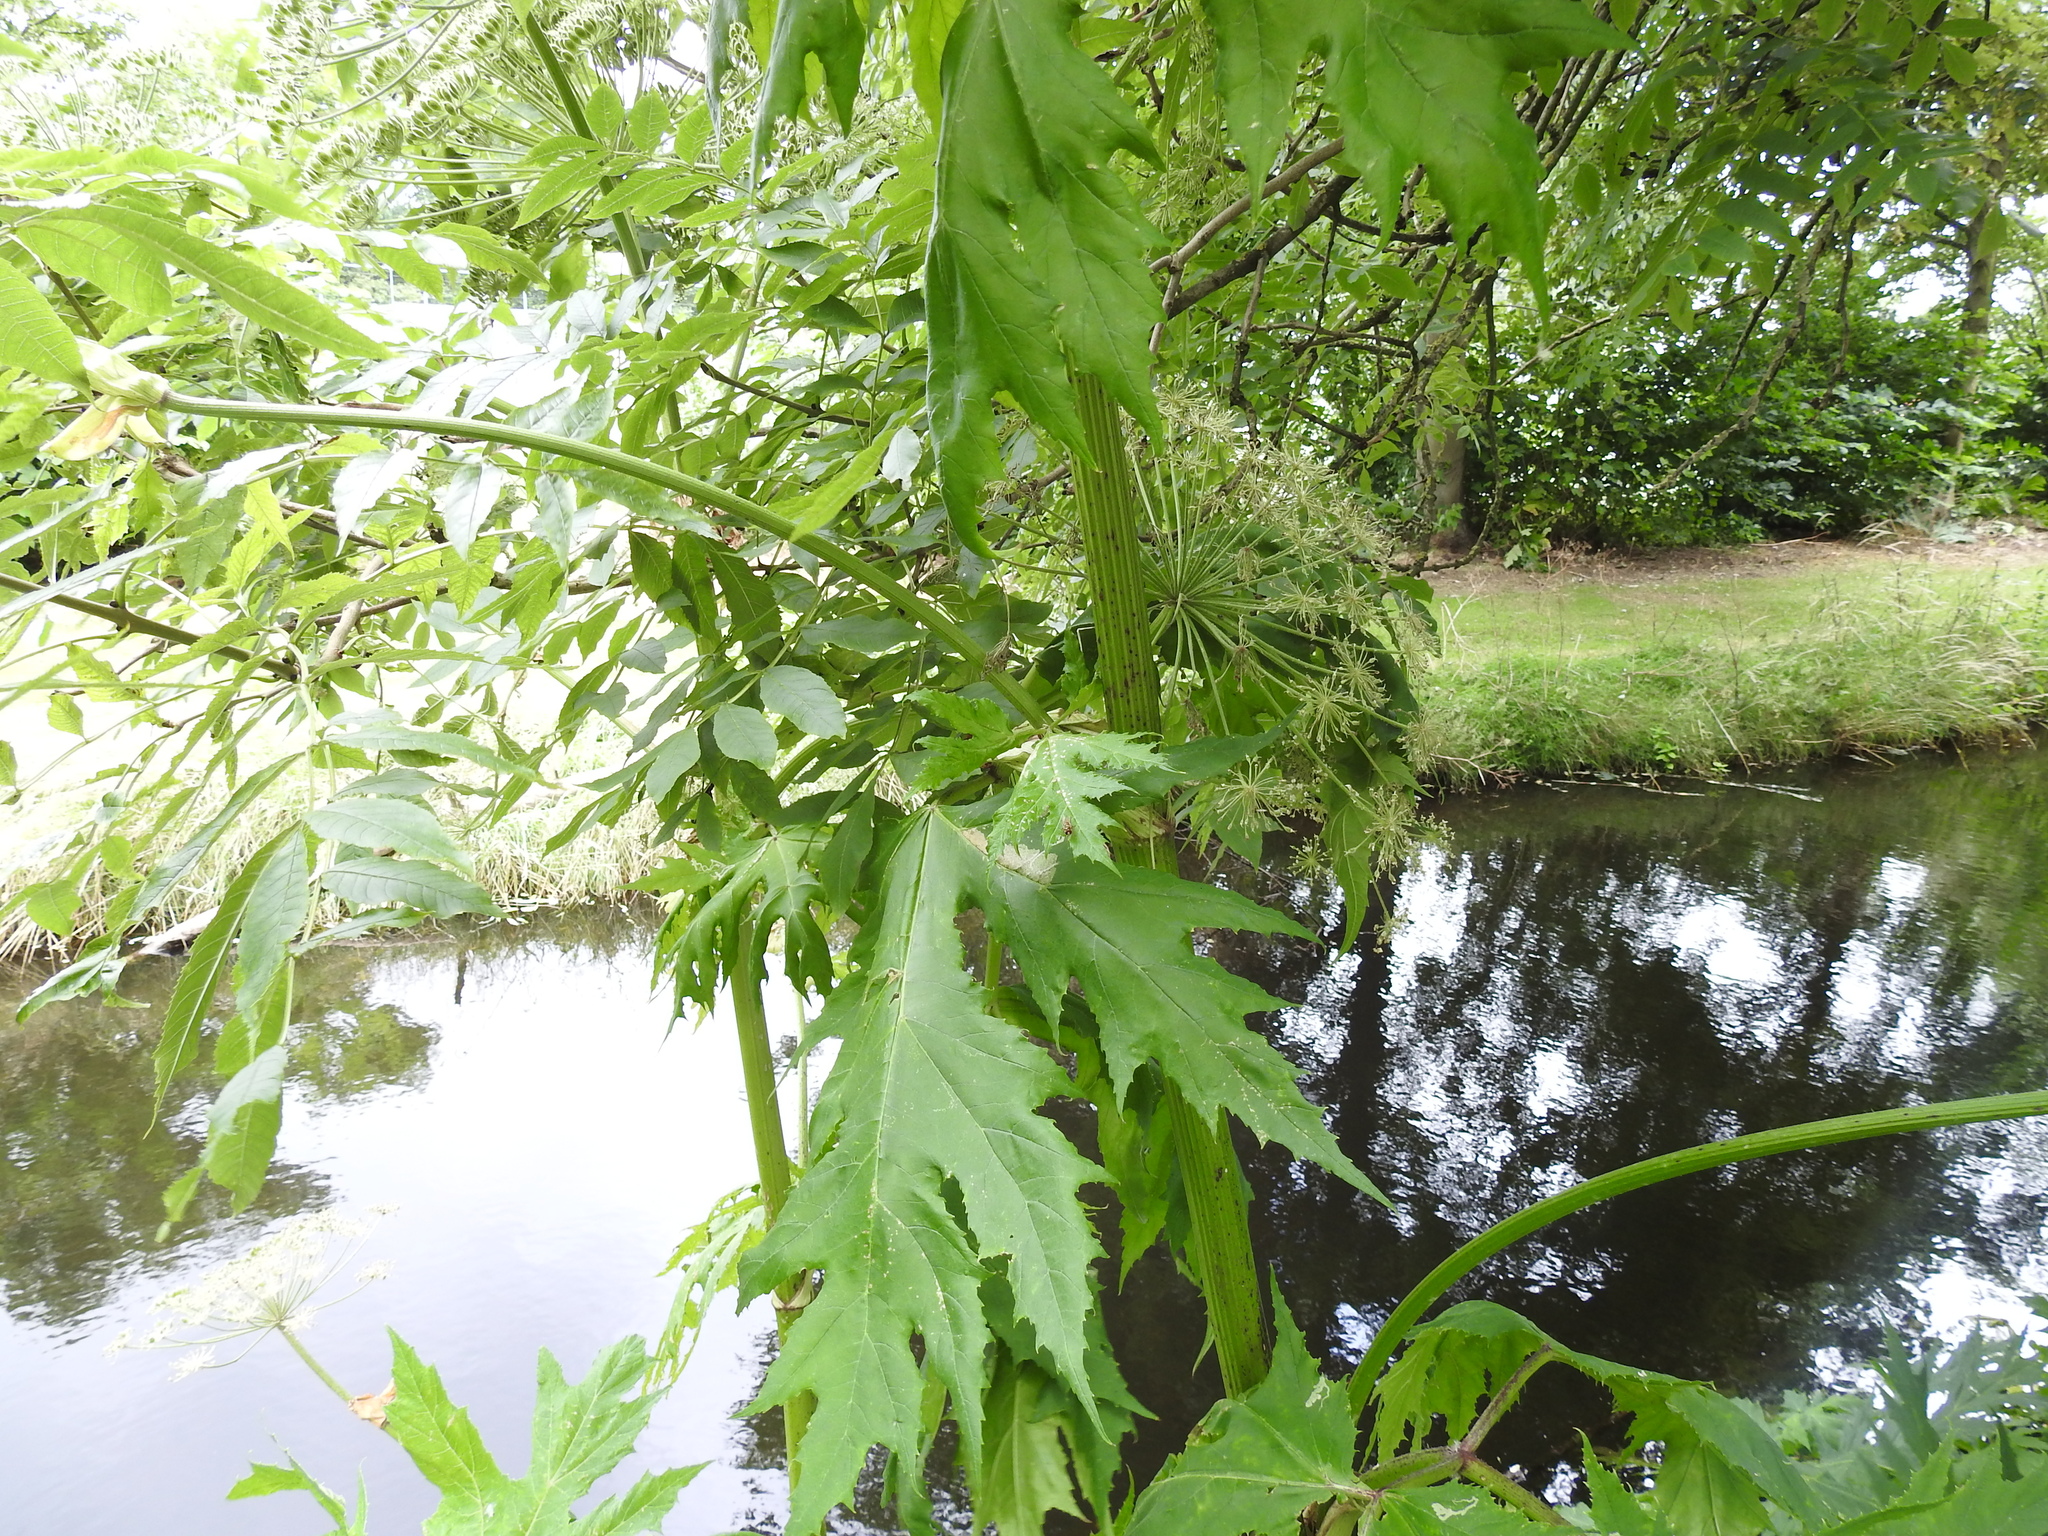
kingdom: Plantae
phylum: Tracheophyta
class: Magnoliopsida
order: Apiales
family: Apiaceae
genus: Heracleum
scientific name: Heracleum mantegazzianum
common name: Giant hogweed
